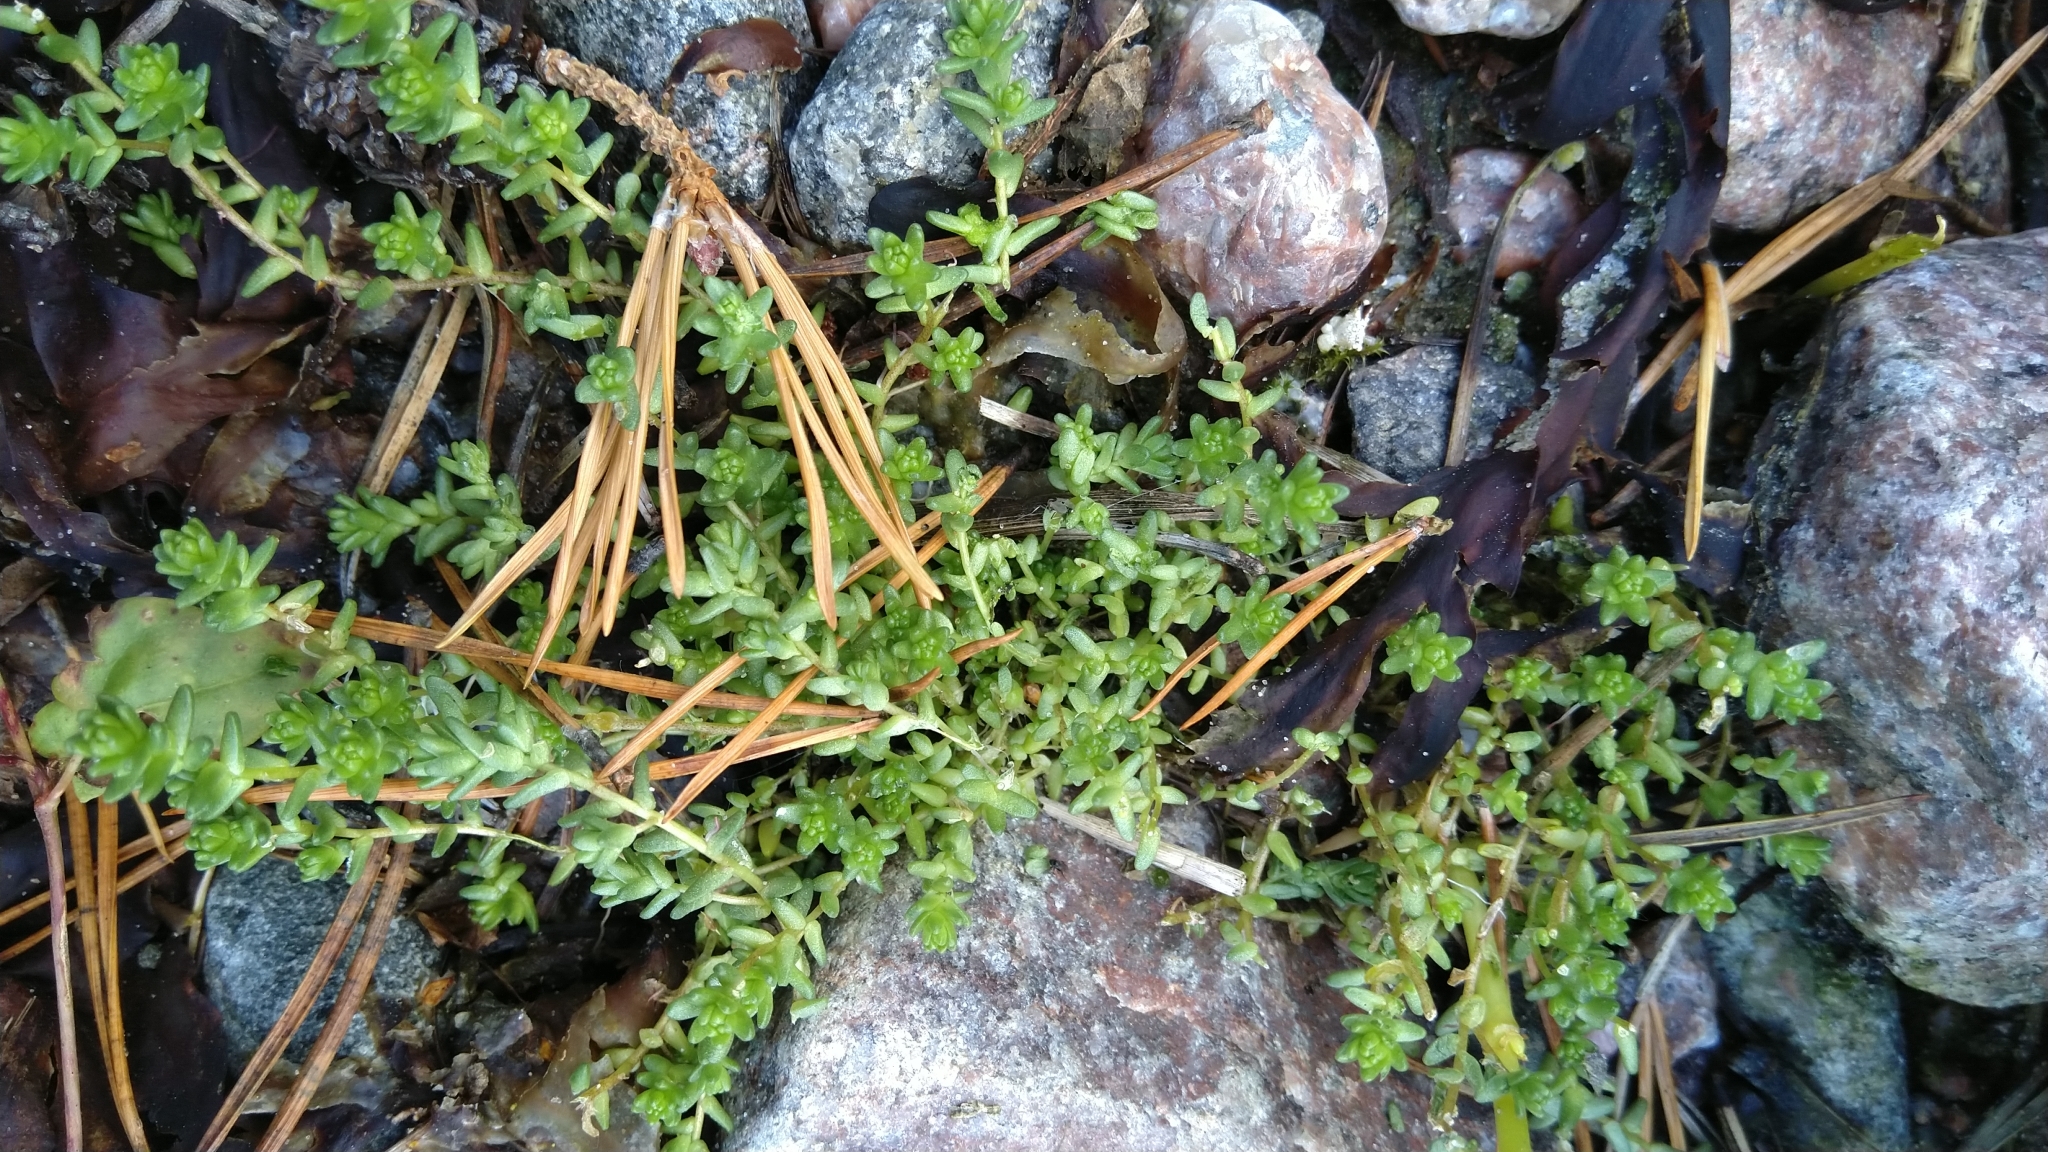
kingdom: Plantae
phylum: Tracheophyta
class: Magnoliopsida
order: Saxifragales
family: Crassulaceae
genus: Sedum
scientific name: Sedum acre
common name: Biting stonecrop
